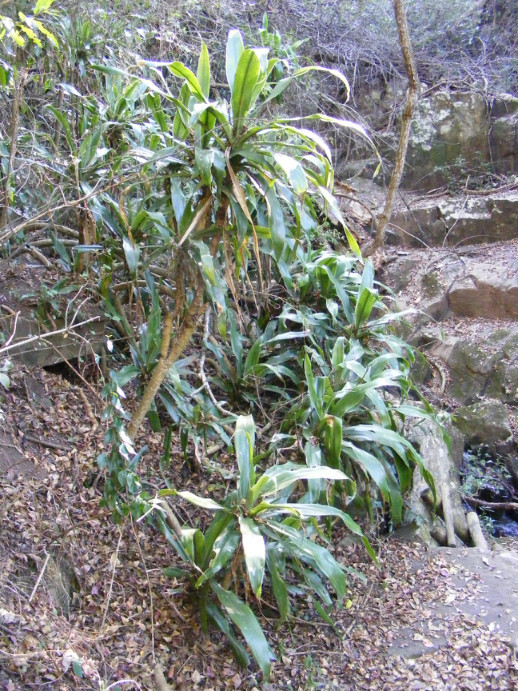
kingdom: Plantae
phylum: Tracheophyta
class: Liliopsida
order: Asparagales
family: Asparagaceae
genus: Dracaena
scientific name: Dracaena aletriformis
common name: Large-leaved dragon tree
